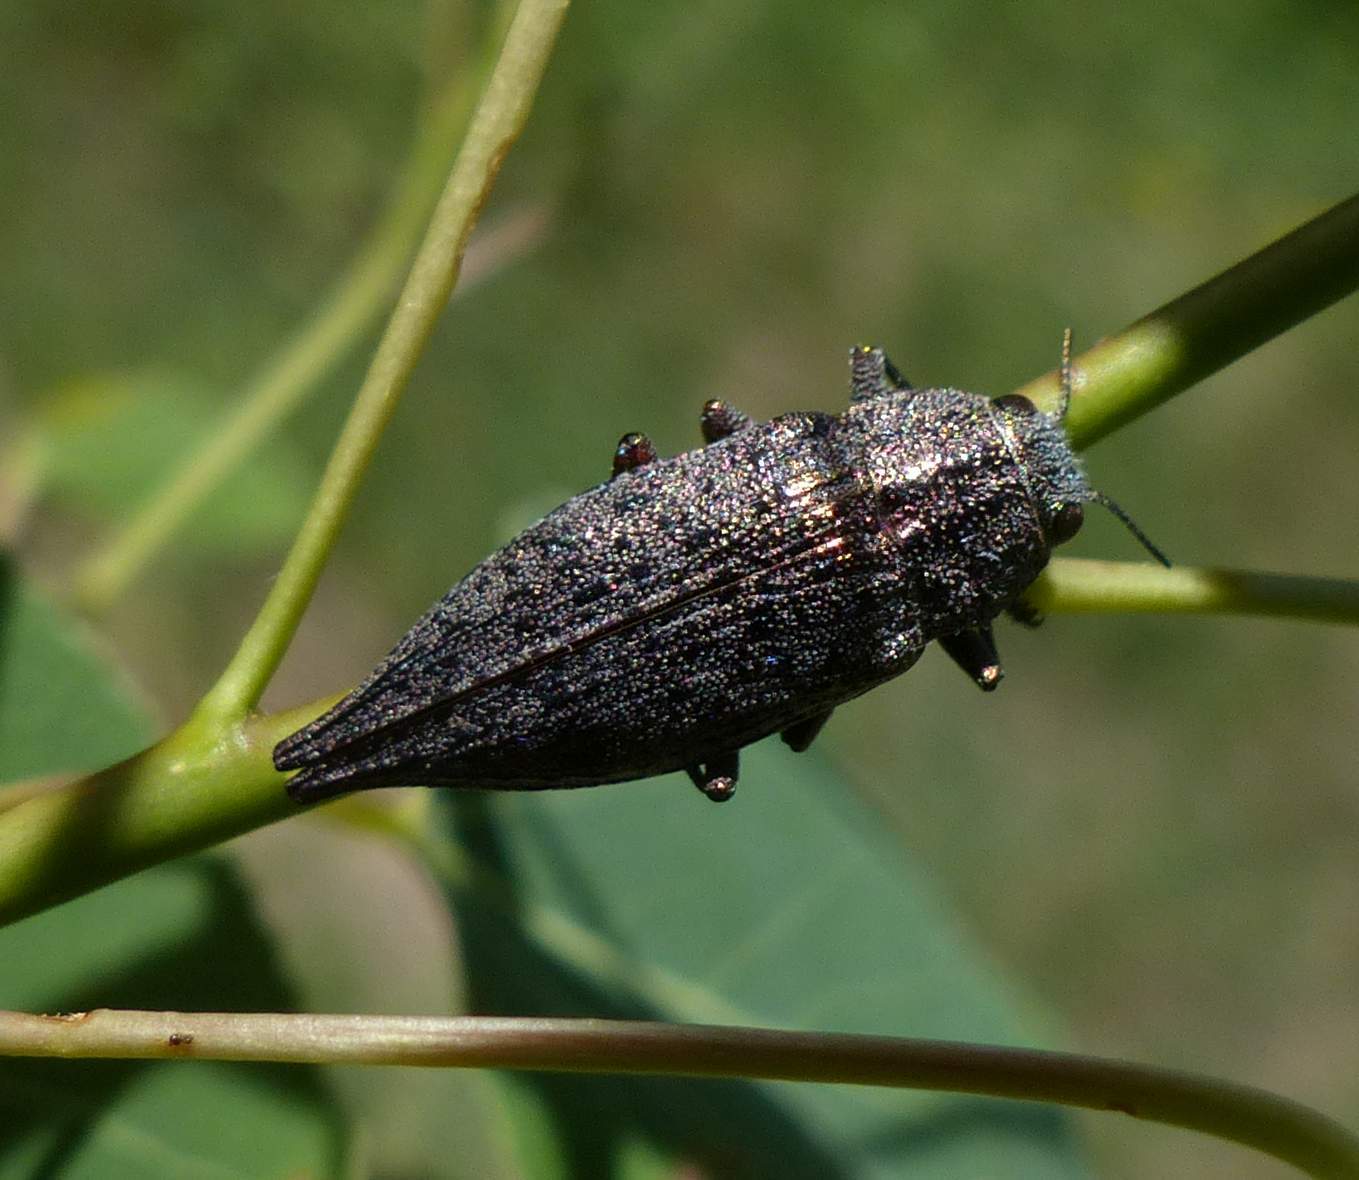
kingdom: Animalia
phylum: Arthropoda
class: Insecta
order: Coleoptera
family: Buprestidae
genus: Dicerca
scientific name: Dicerca tenebrica
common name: Flat-headed poplar borer
